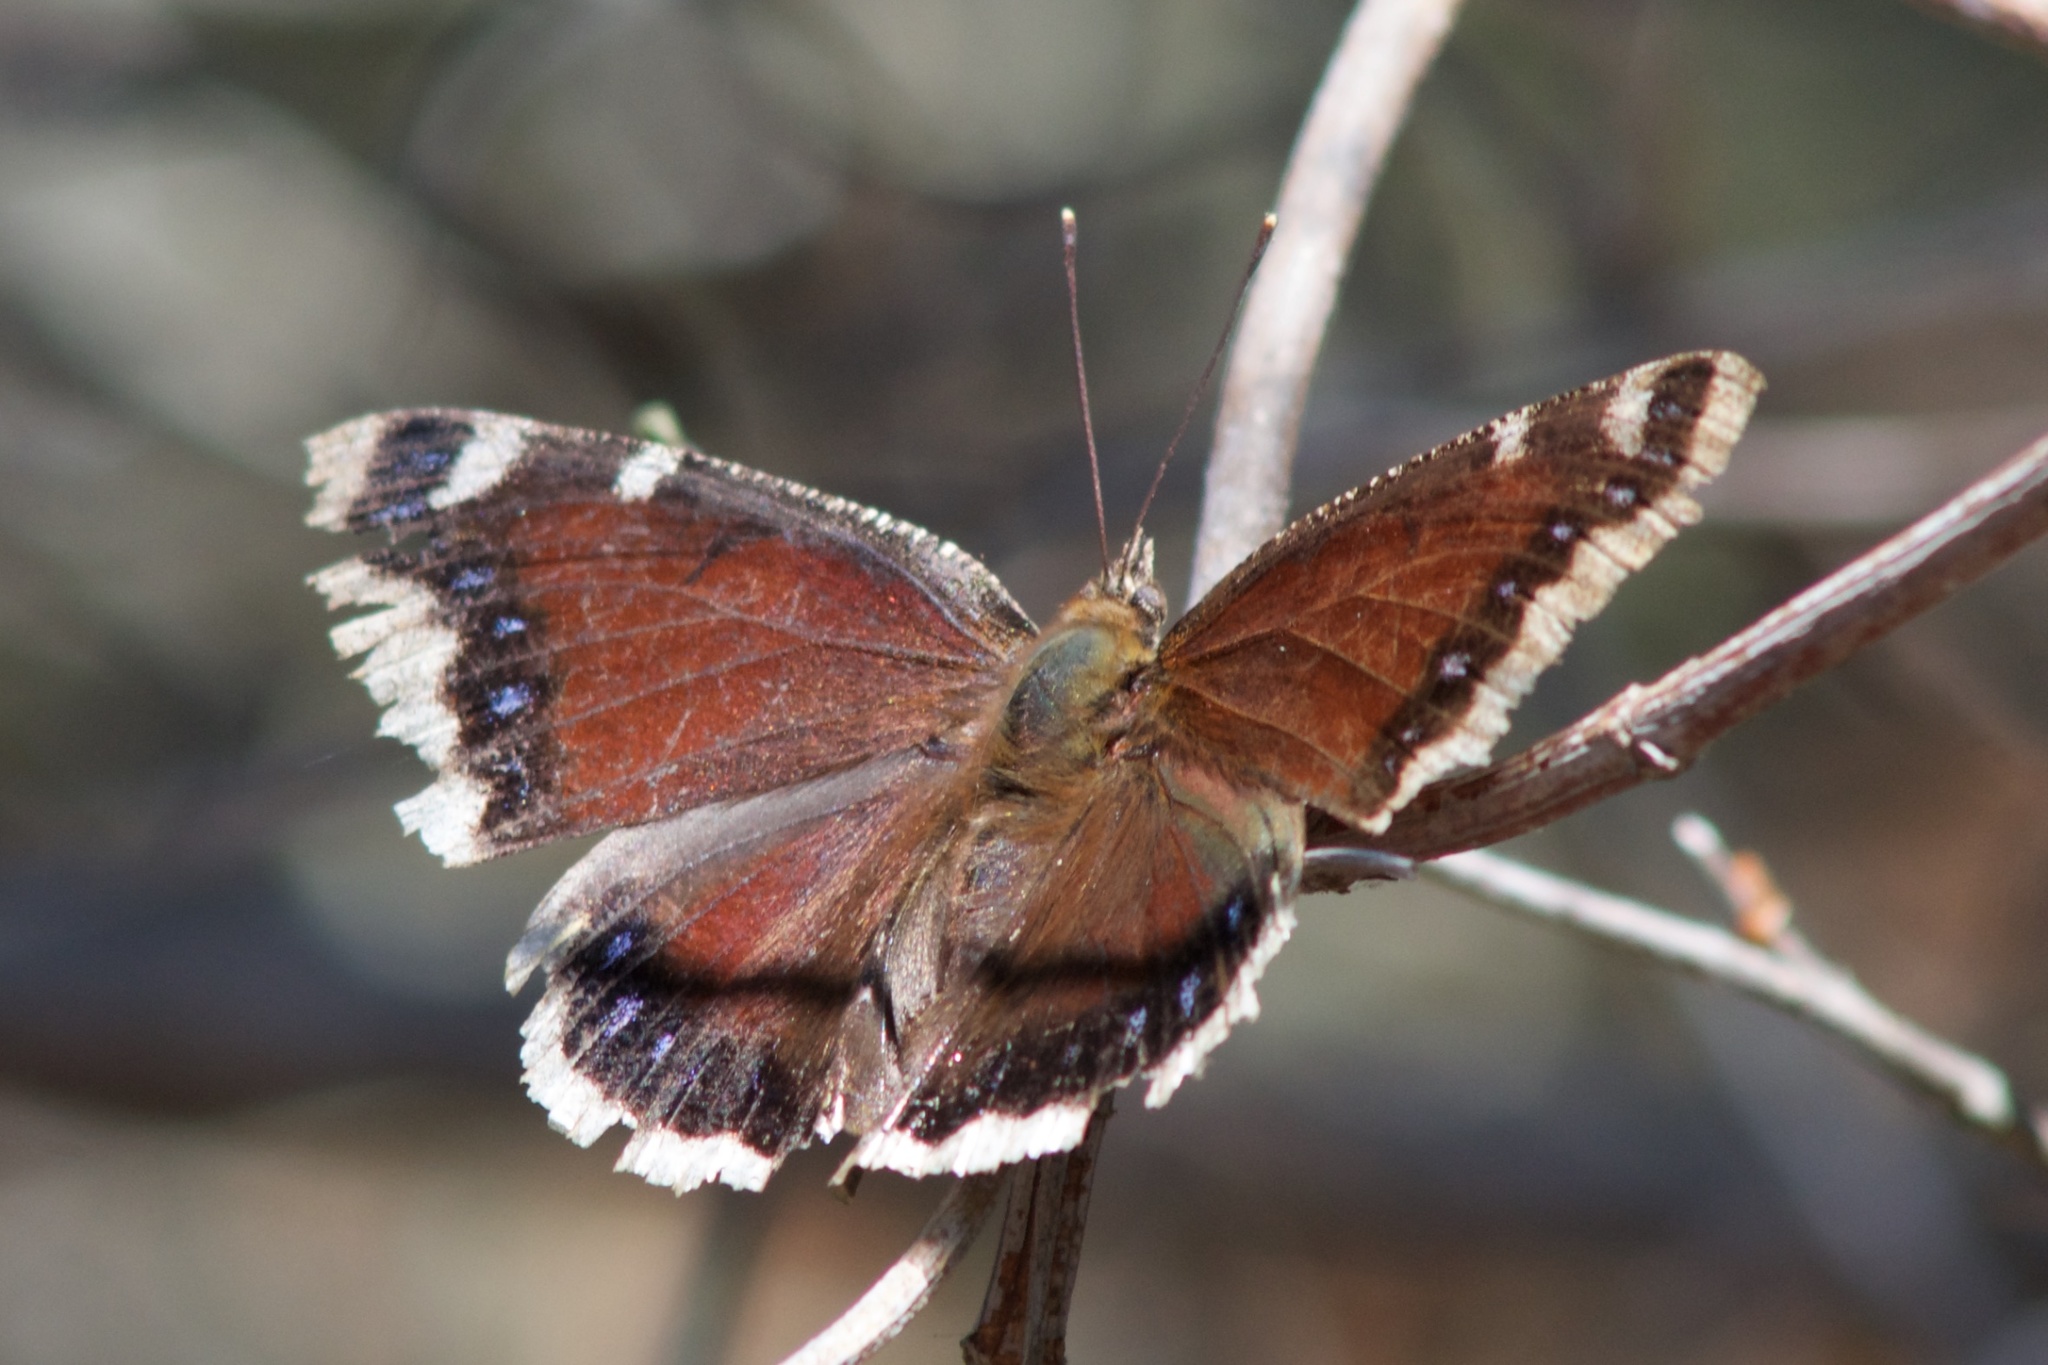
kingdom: Animalia
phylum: Arthropoda
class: Insecta
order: Lepidoptera
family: Nymphalidae
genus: Nymphalis
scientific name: Nymphalis antiopa
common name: Camberwell beauty
